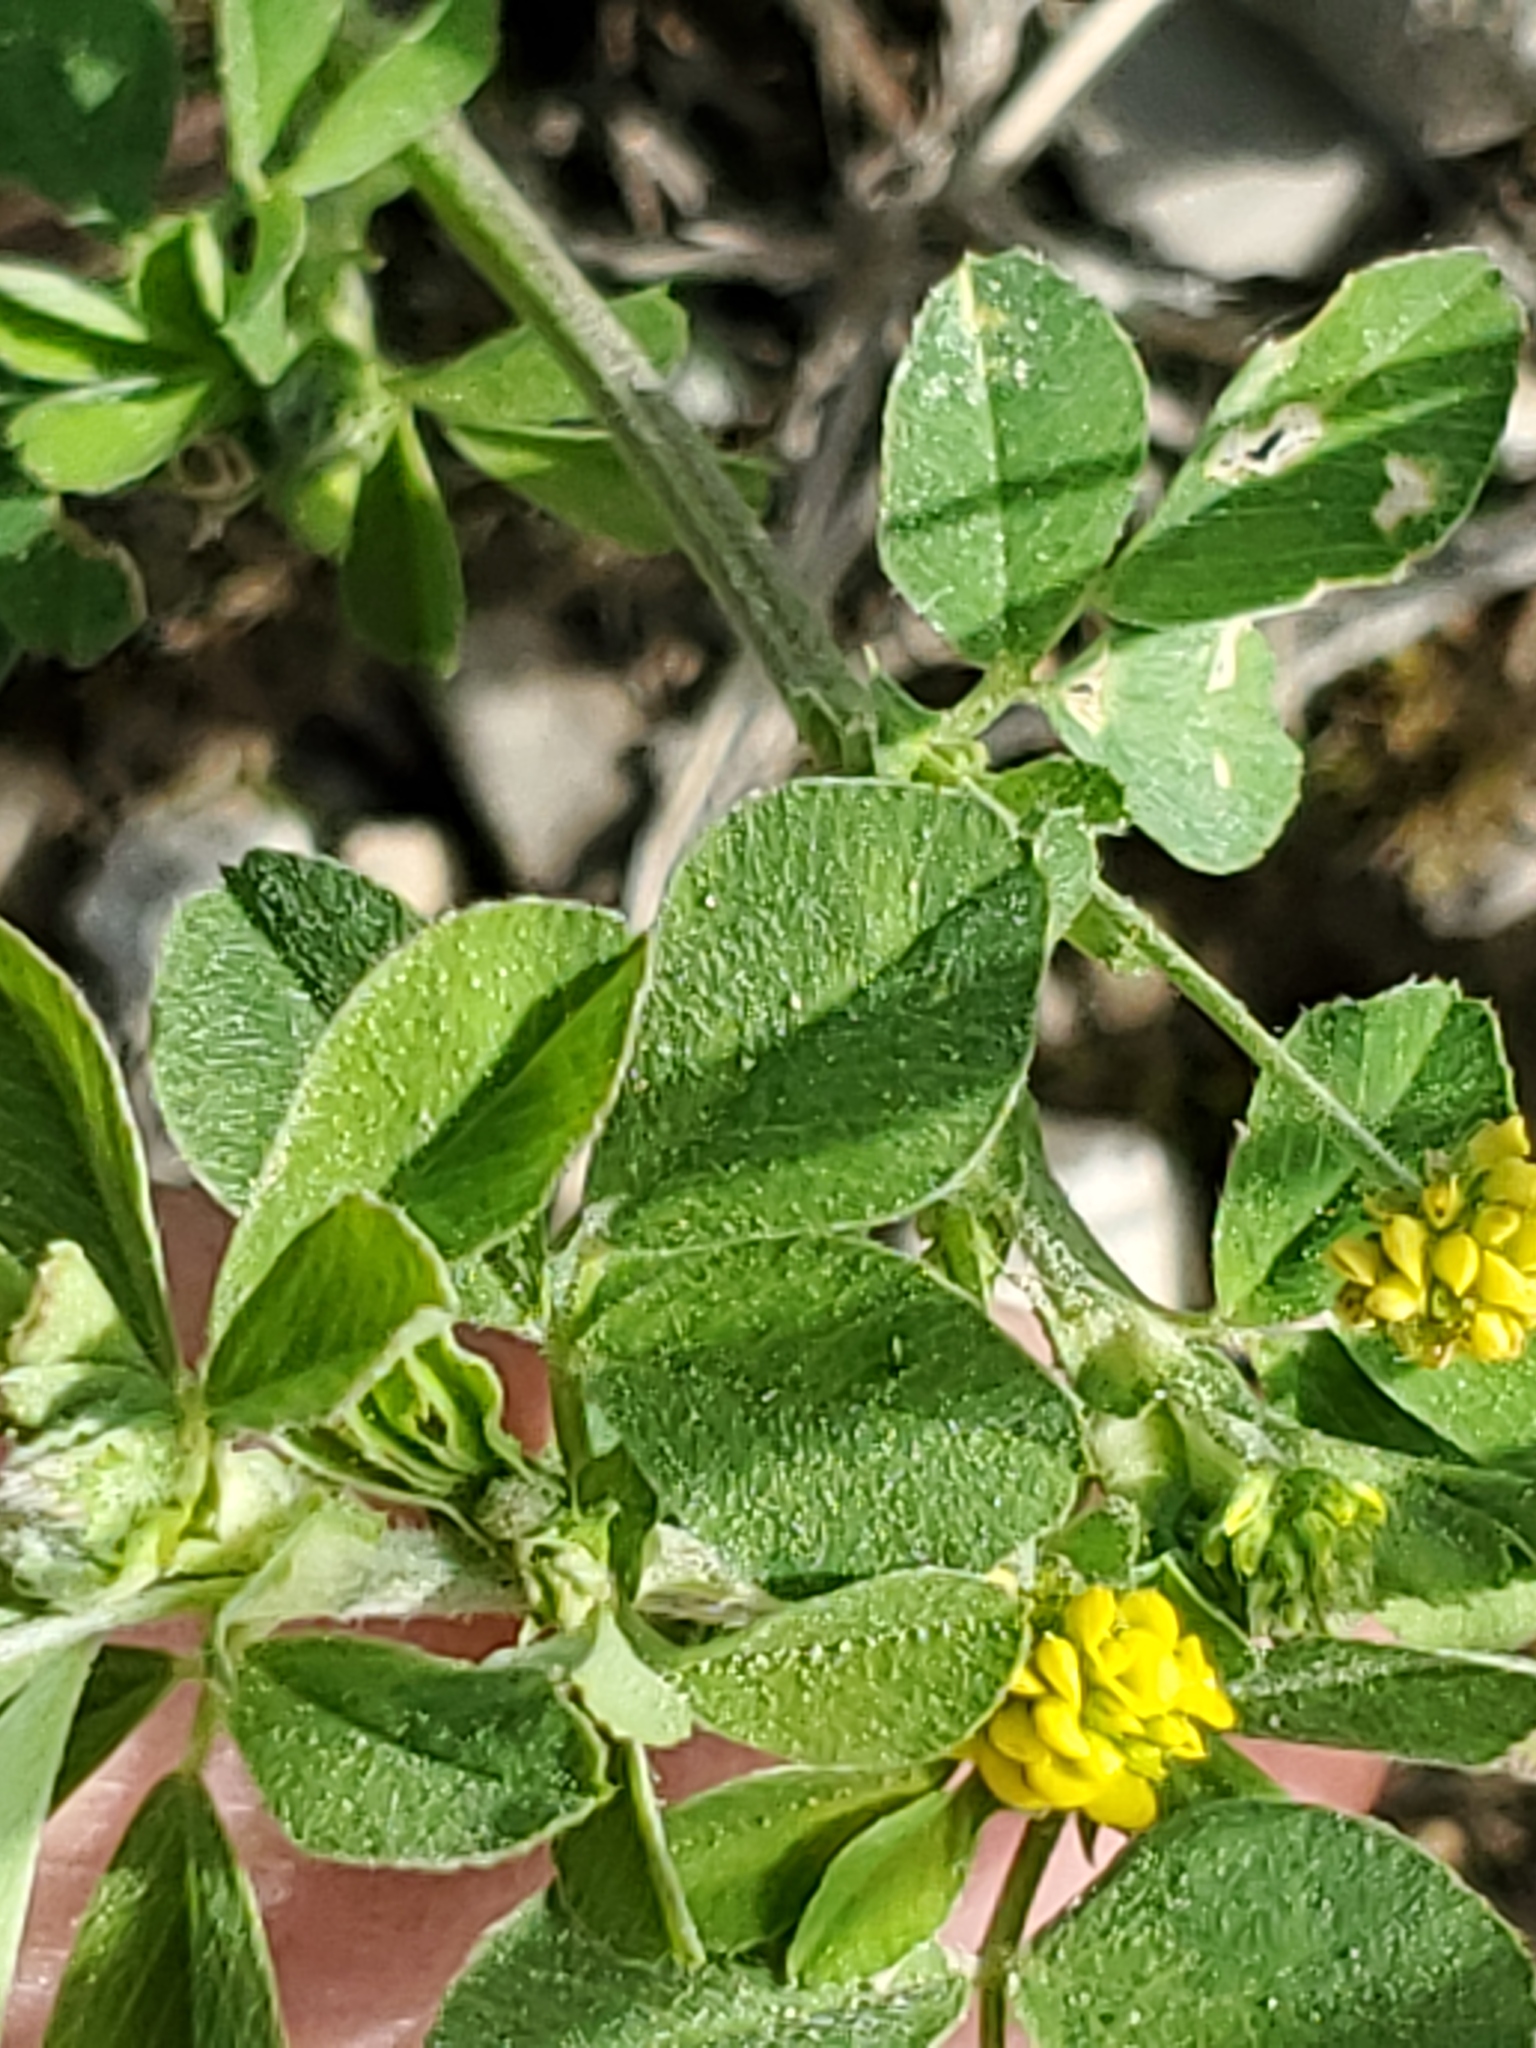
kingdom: Plantae
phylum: Tracheophyta
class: Magnoliopsida
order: Fabales
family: Fabaceae
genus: Medicago
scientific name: Medicago lupulina
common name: Black medick
